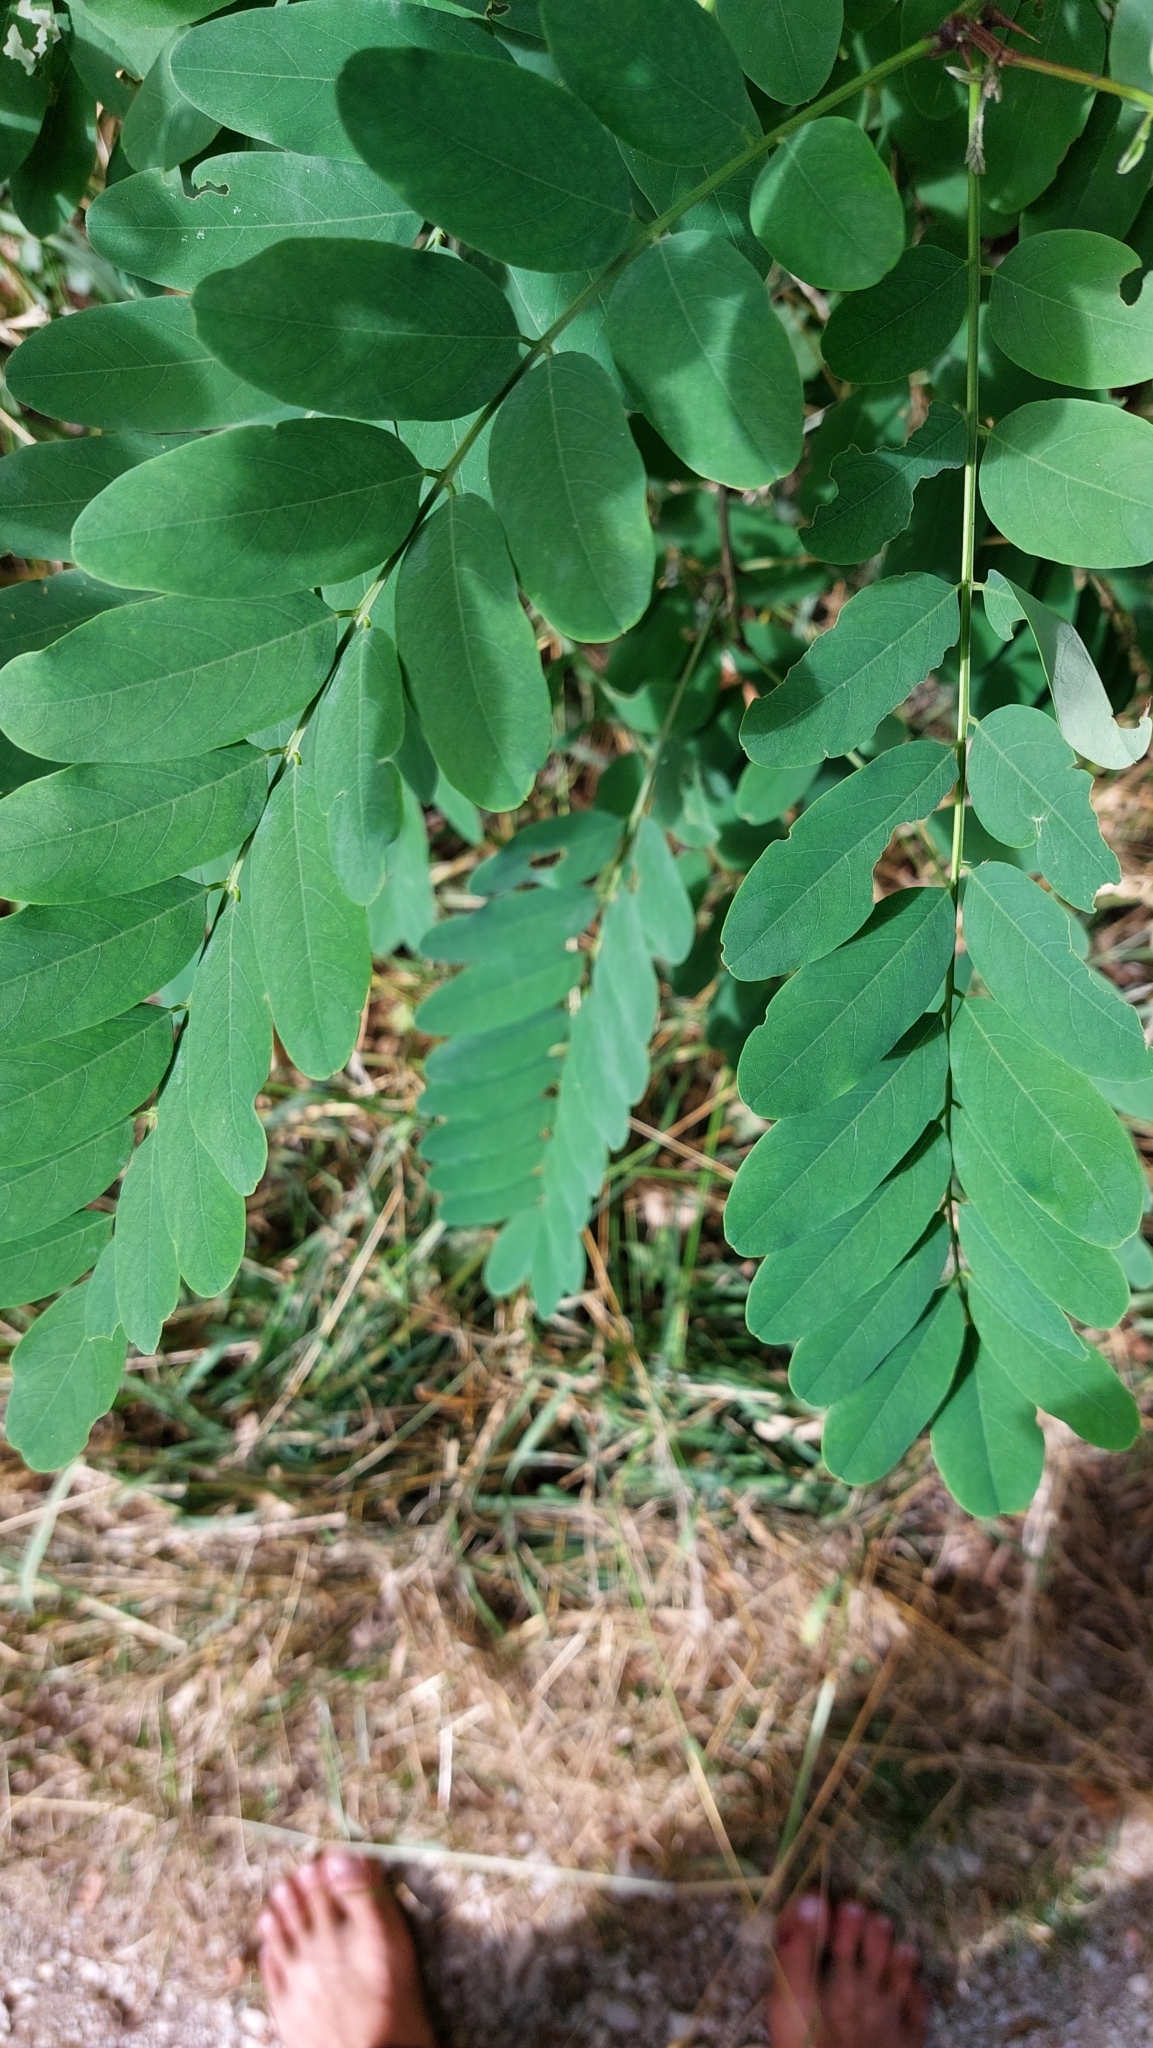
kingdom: Plantae
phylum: Tracheophyta
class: Magnoliopsida
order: Fabales
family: Fabaceae
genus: Robinia
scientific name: Robinia pseudoacacia
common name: Black locust
